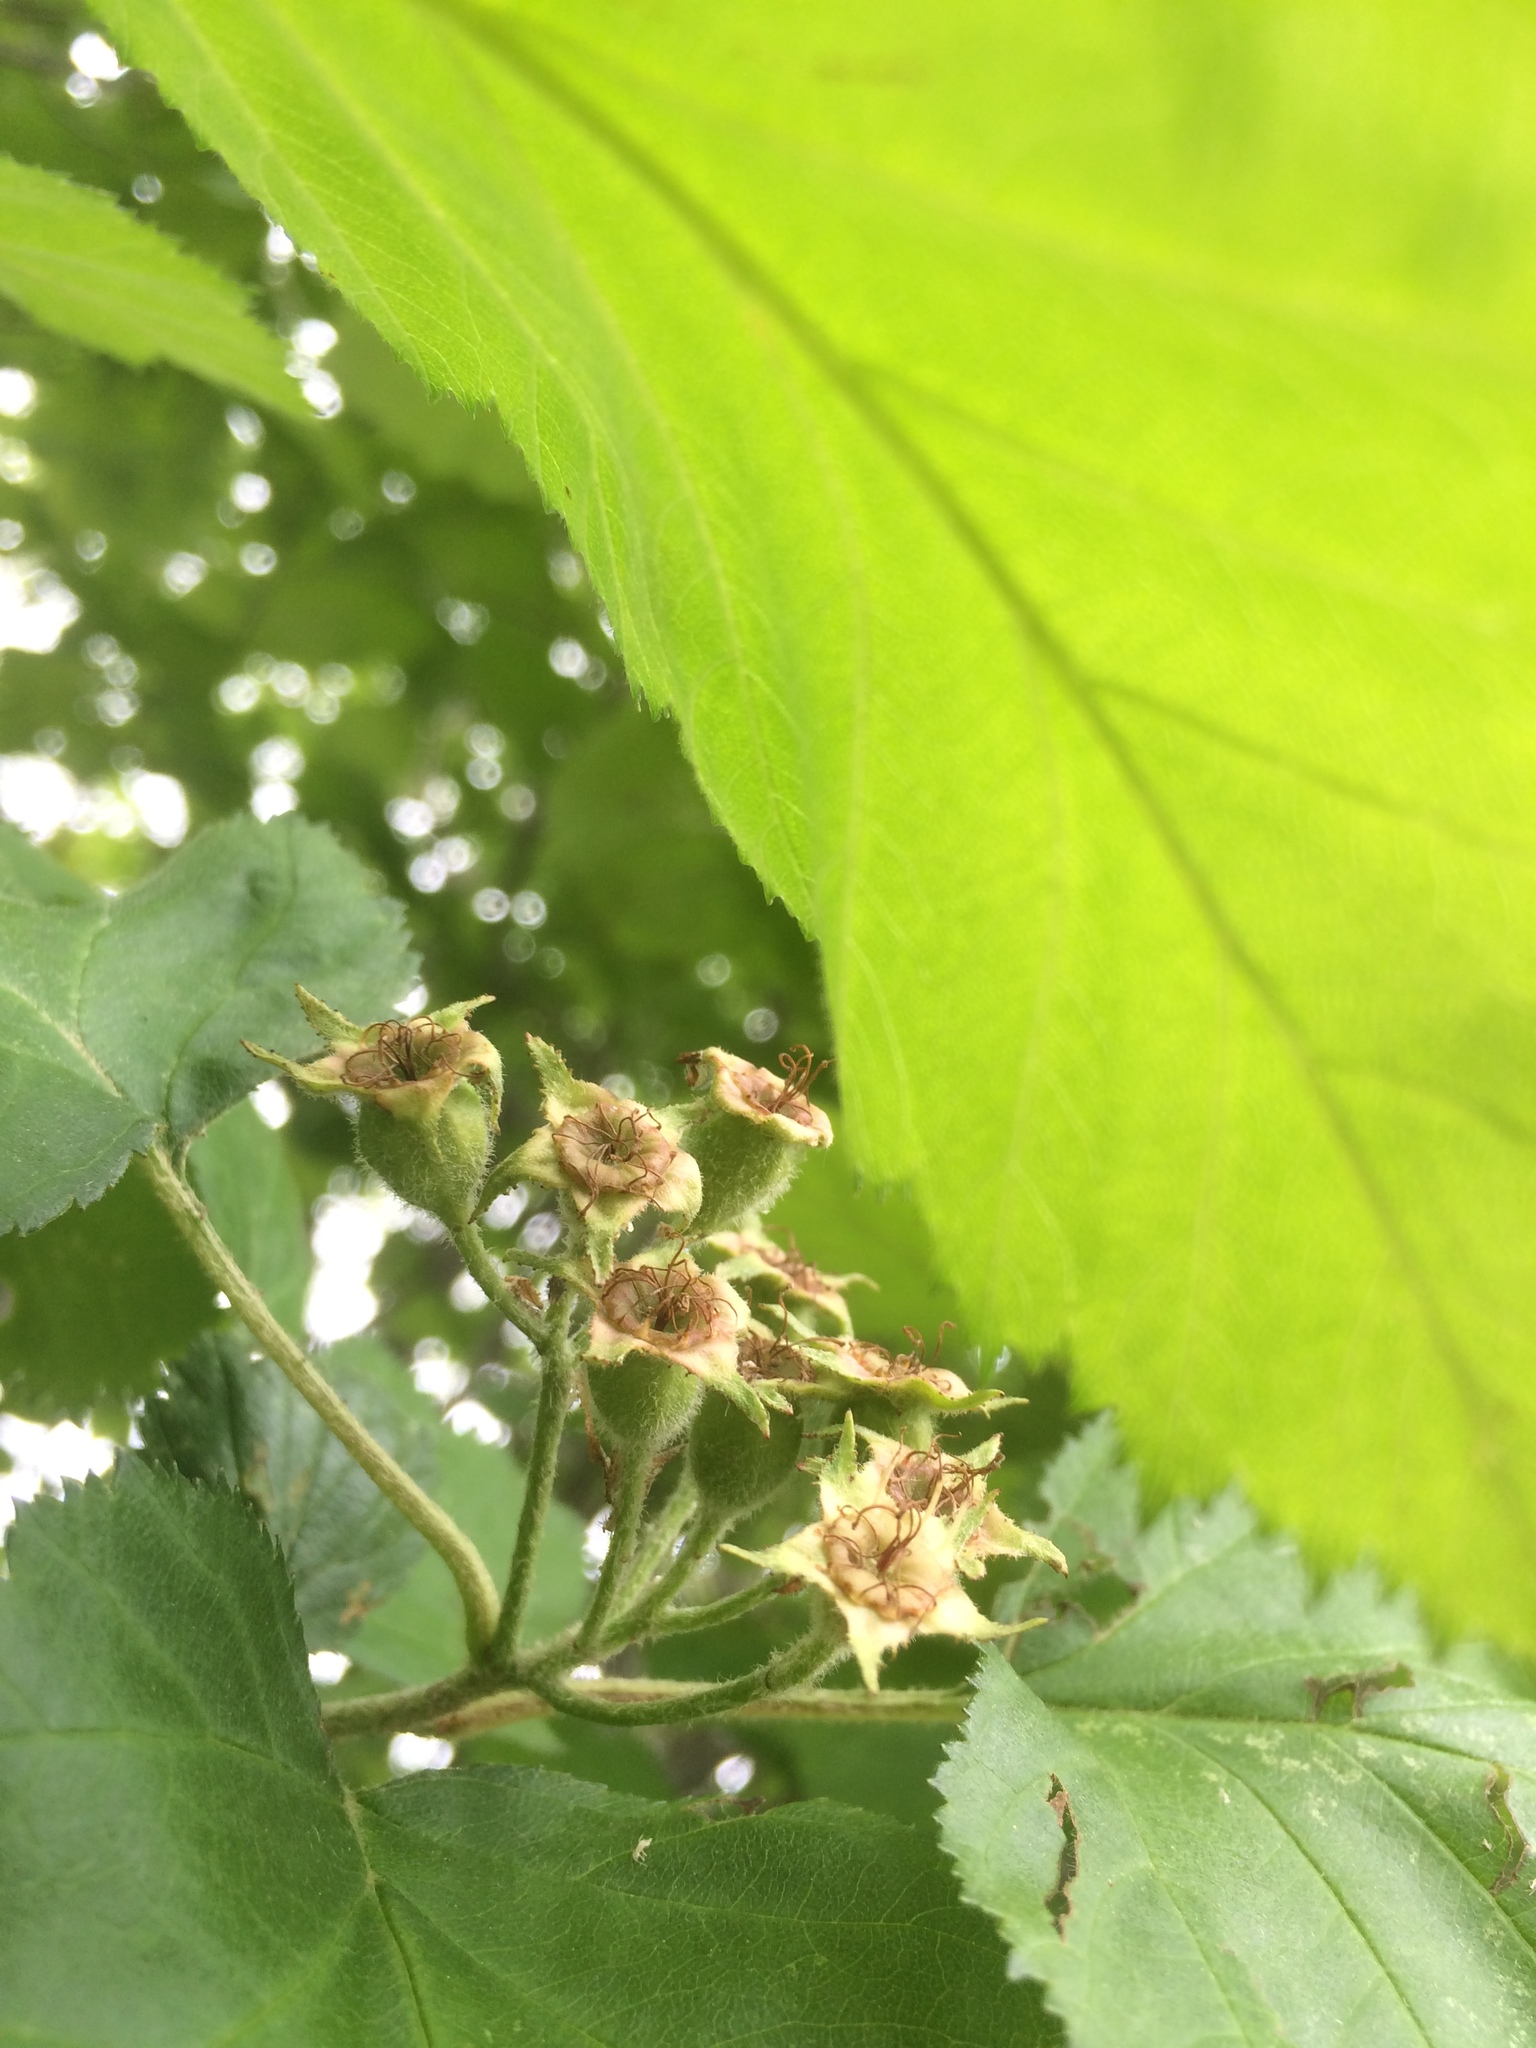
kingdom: Plantae
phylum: Tracheophyta
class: Magnoliopsida
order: Rosales
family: Rosaceae
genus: Crataegus
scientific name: Crataegus submollis
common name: Hairy cockspurthorn
